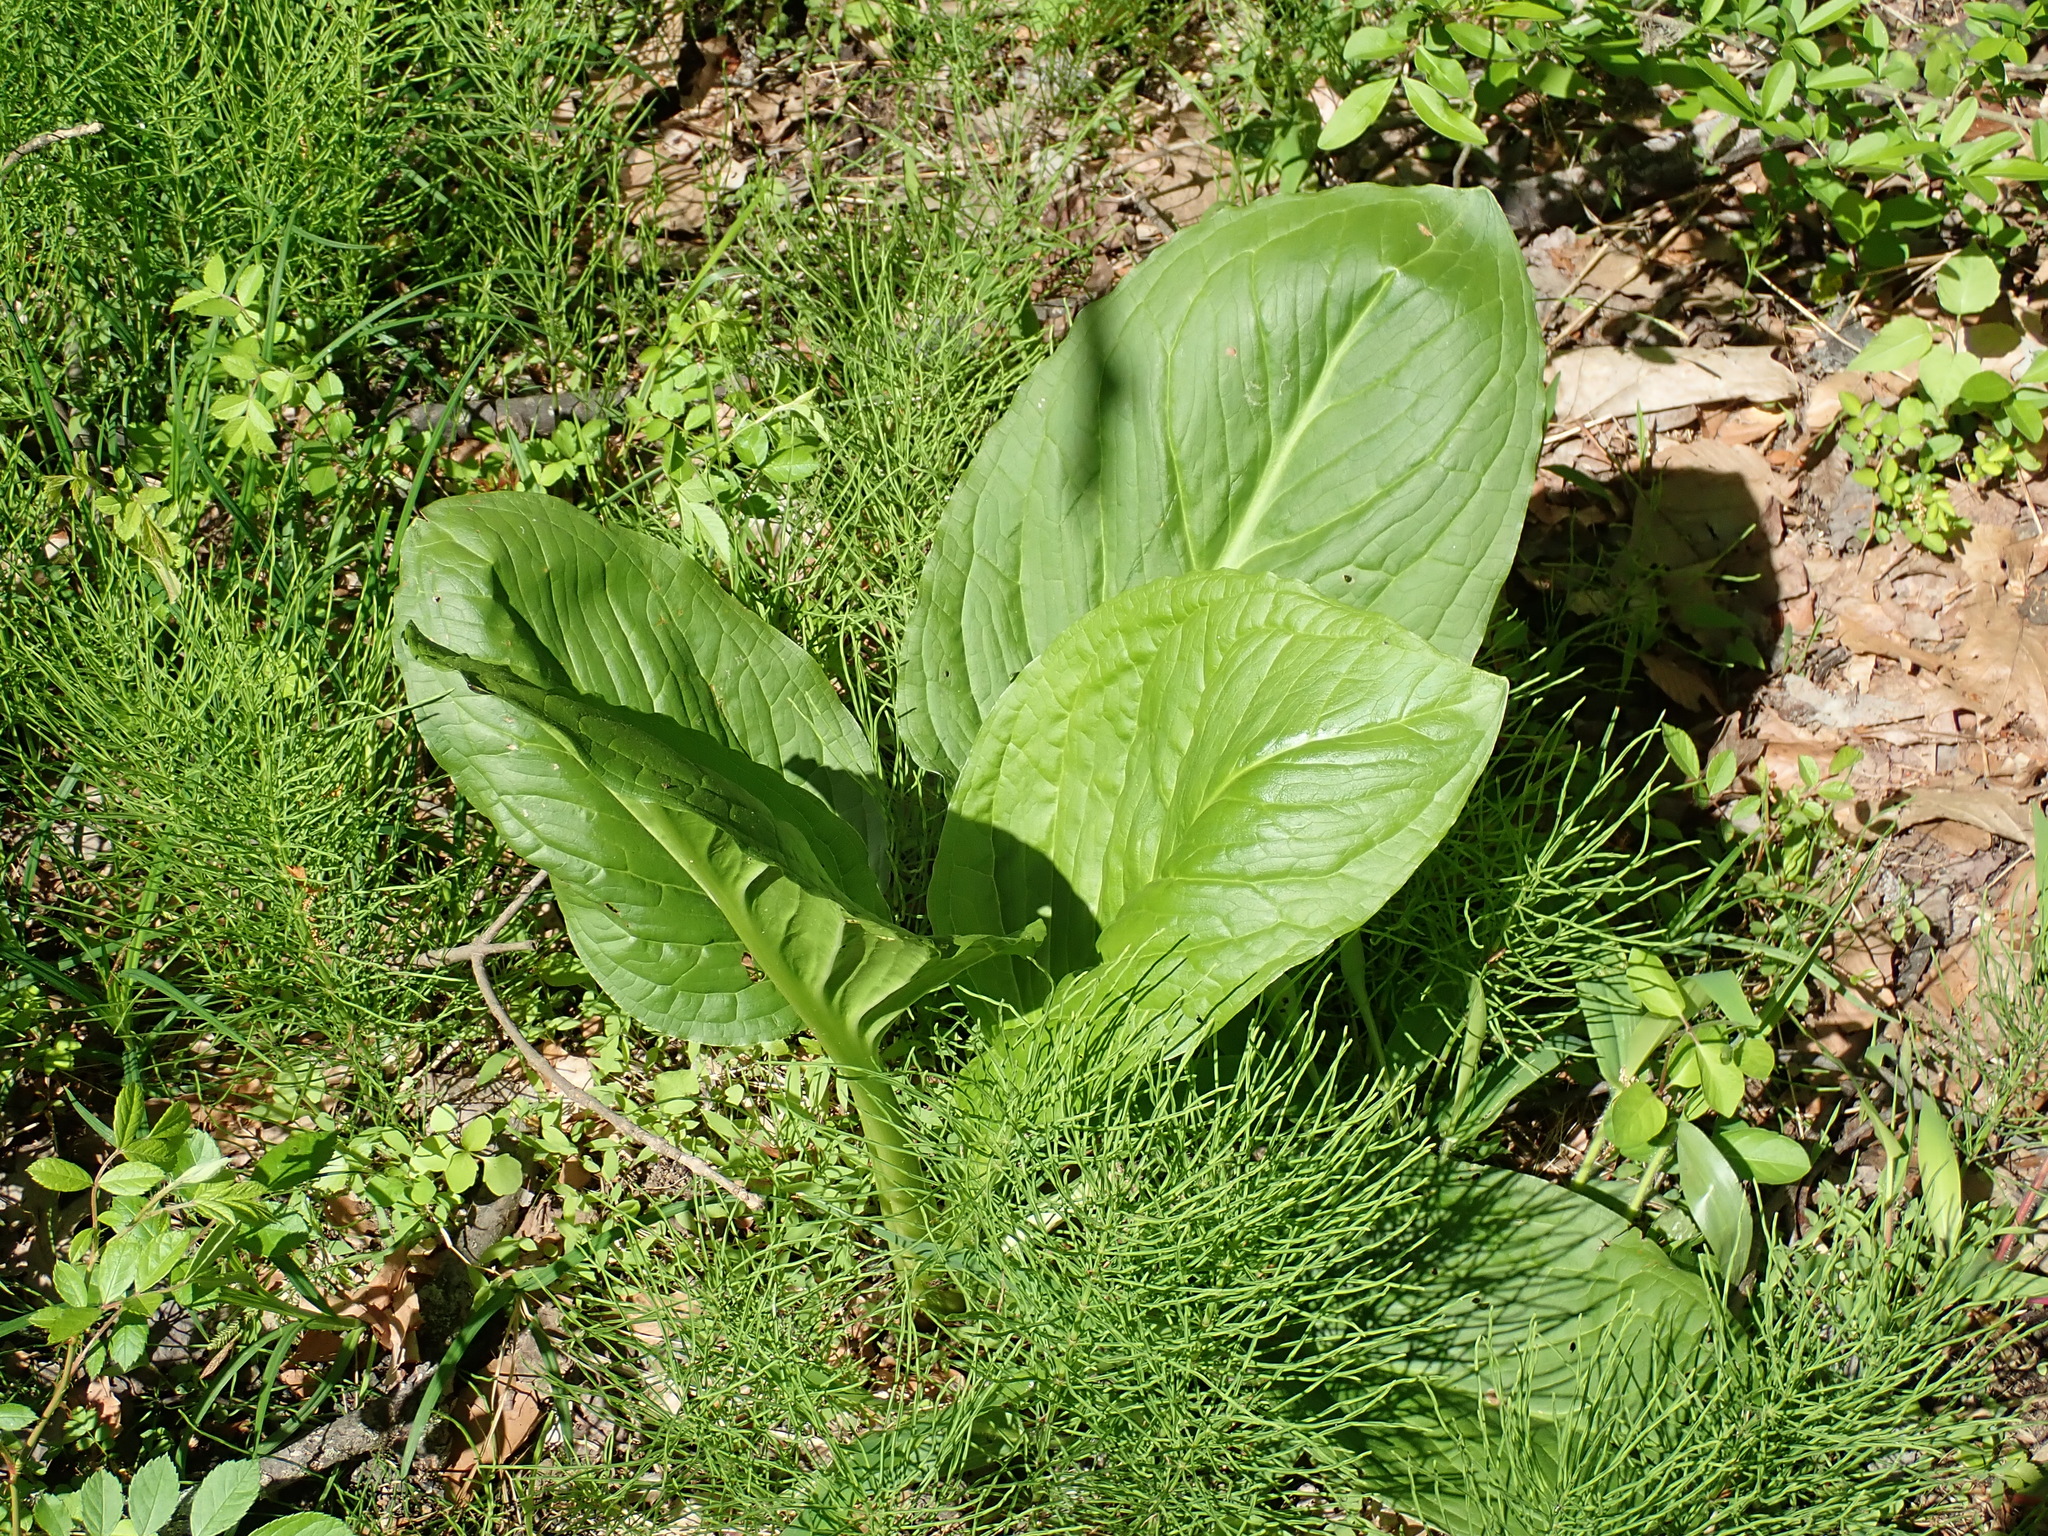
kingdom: Plantae
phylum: Tracheophyta
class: Liliopsida
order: Alismatales
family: Araceae
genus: Symplocarpus
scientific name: Symplocarpus foetidus
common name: Eastern skunk cabbage
